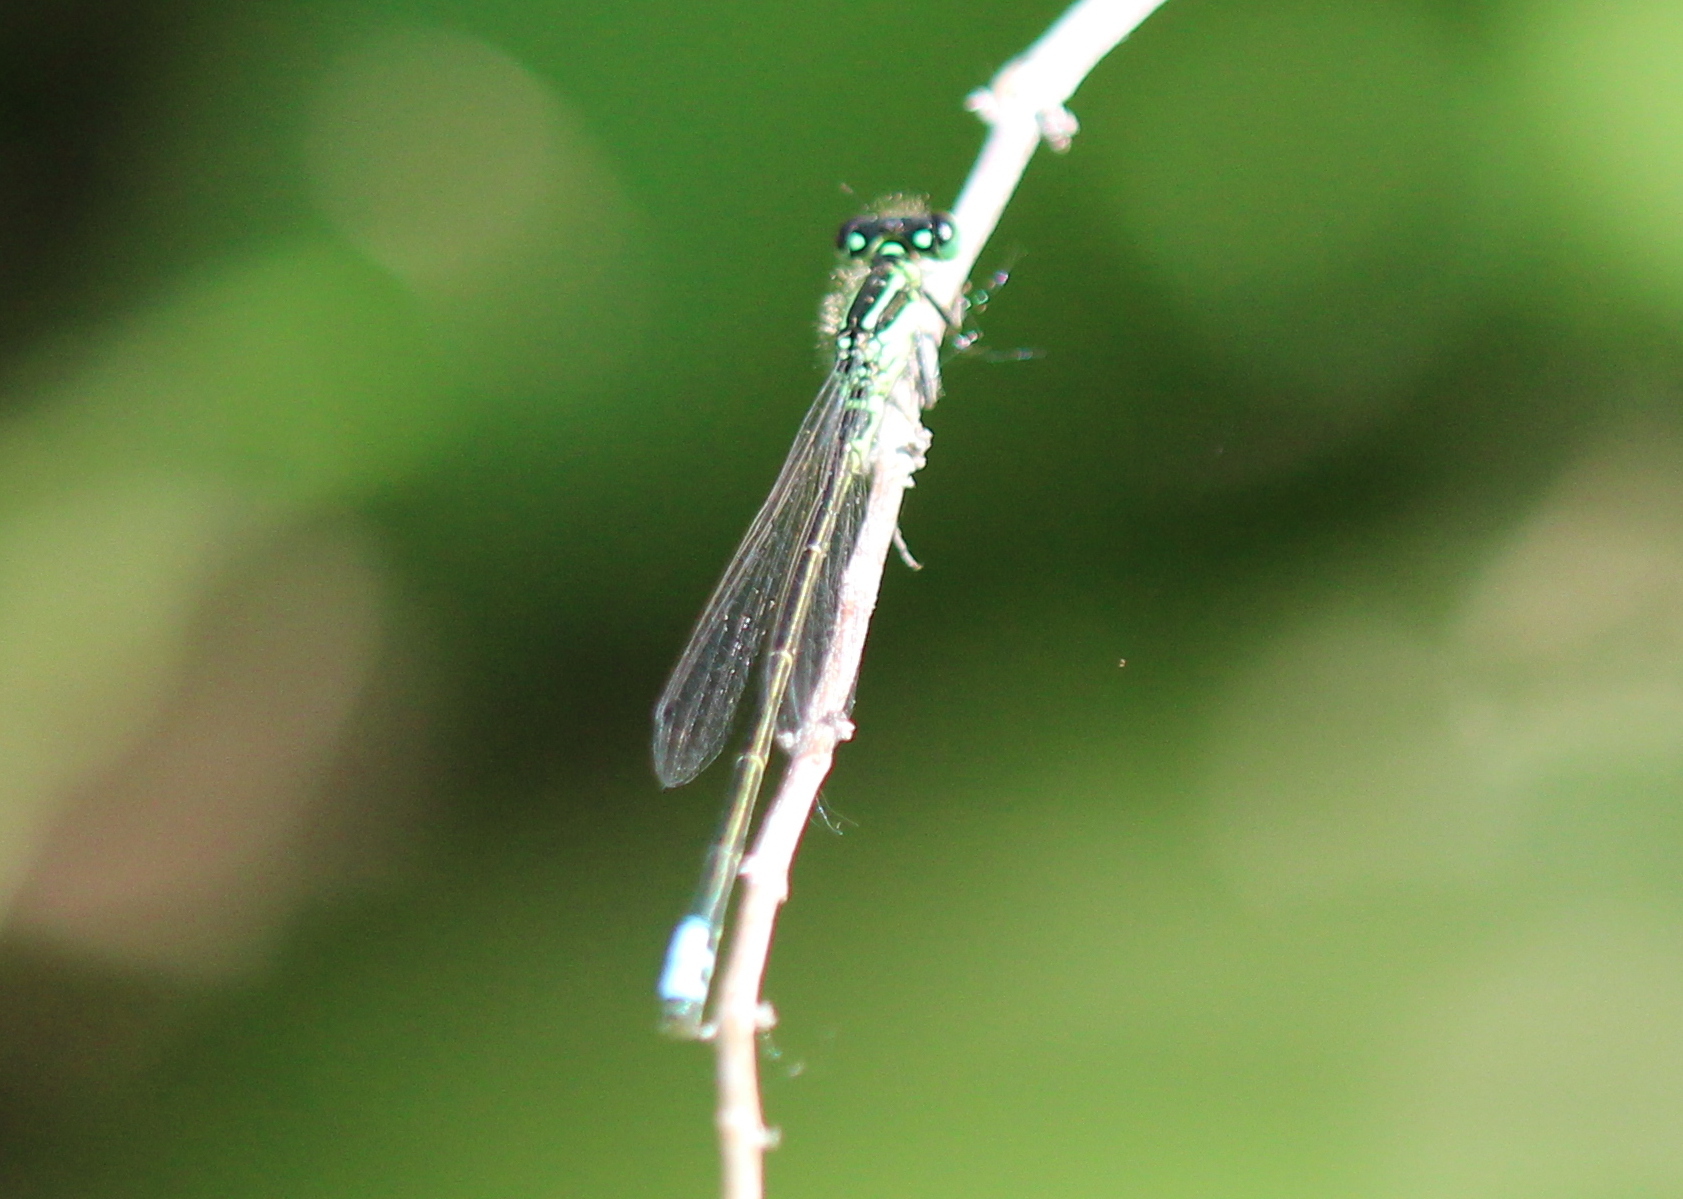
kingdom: Animalia
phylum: Arthropoda
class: Insecta
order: Odonata
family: Coenagrionidae
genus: Ischnura
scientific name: Ischnura verticalis
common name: Eastern forktail
